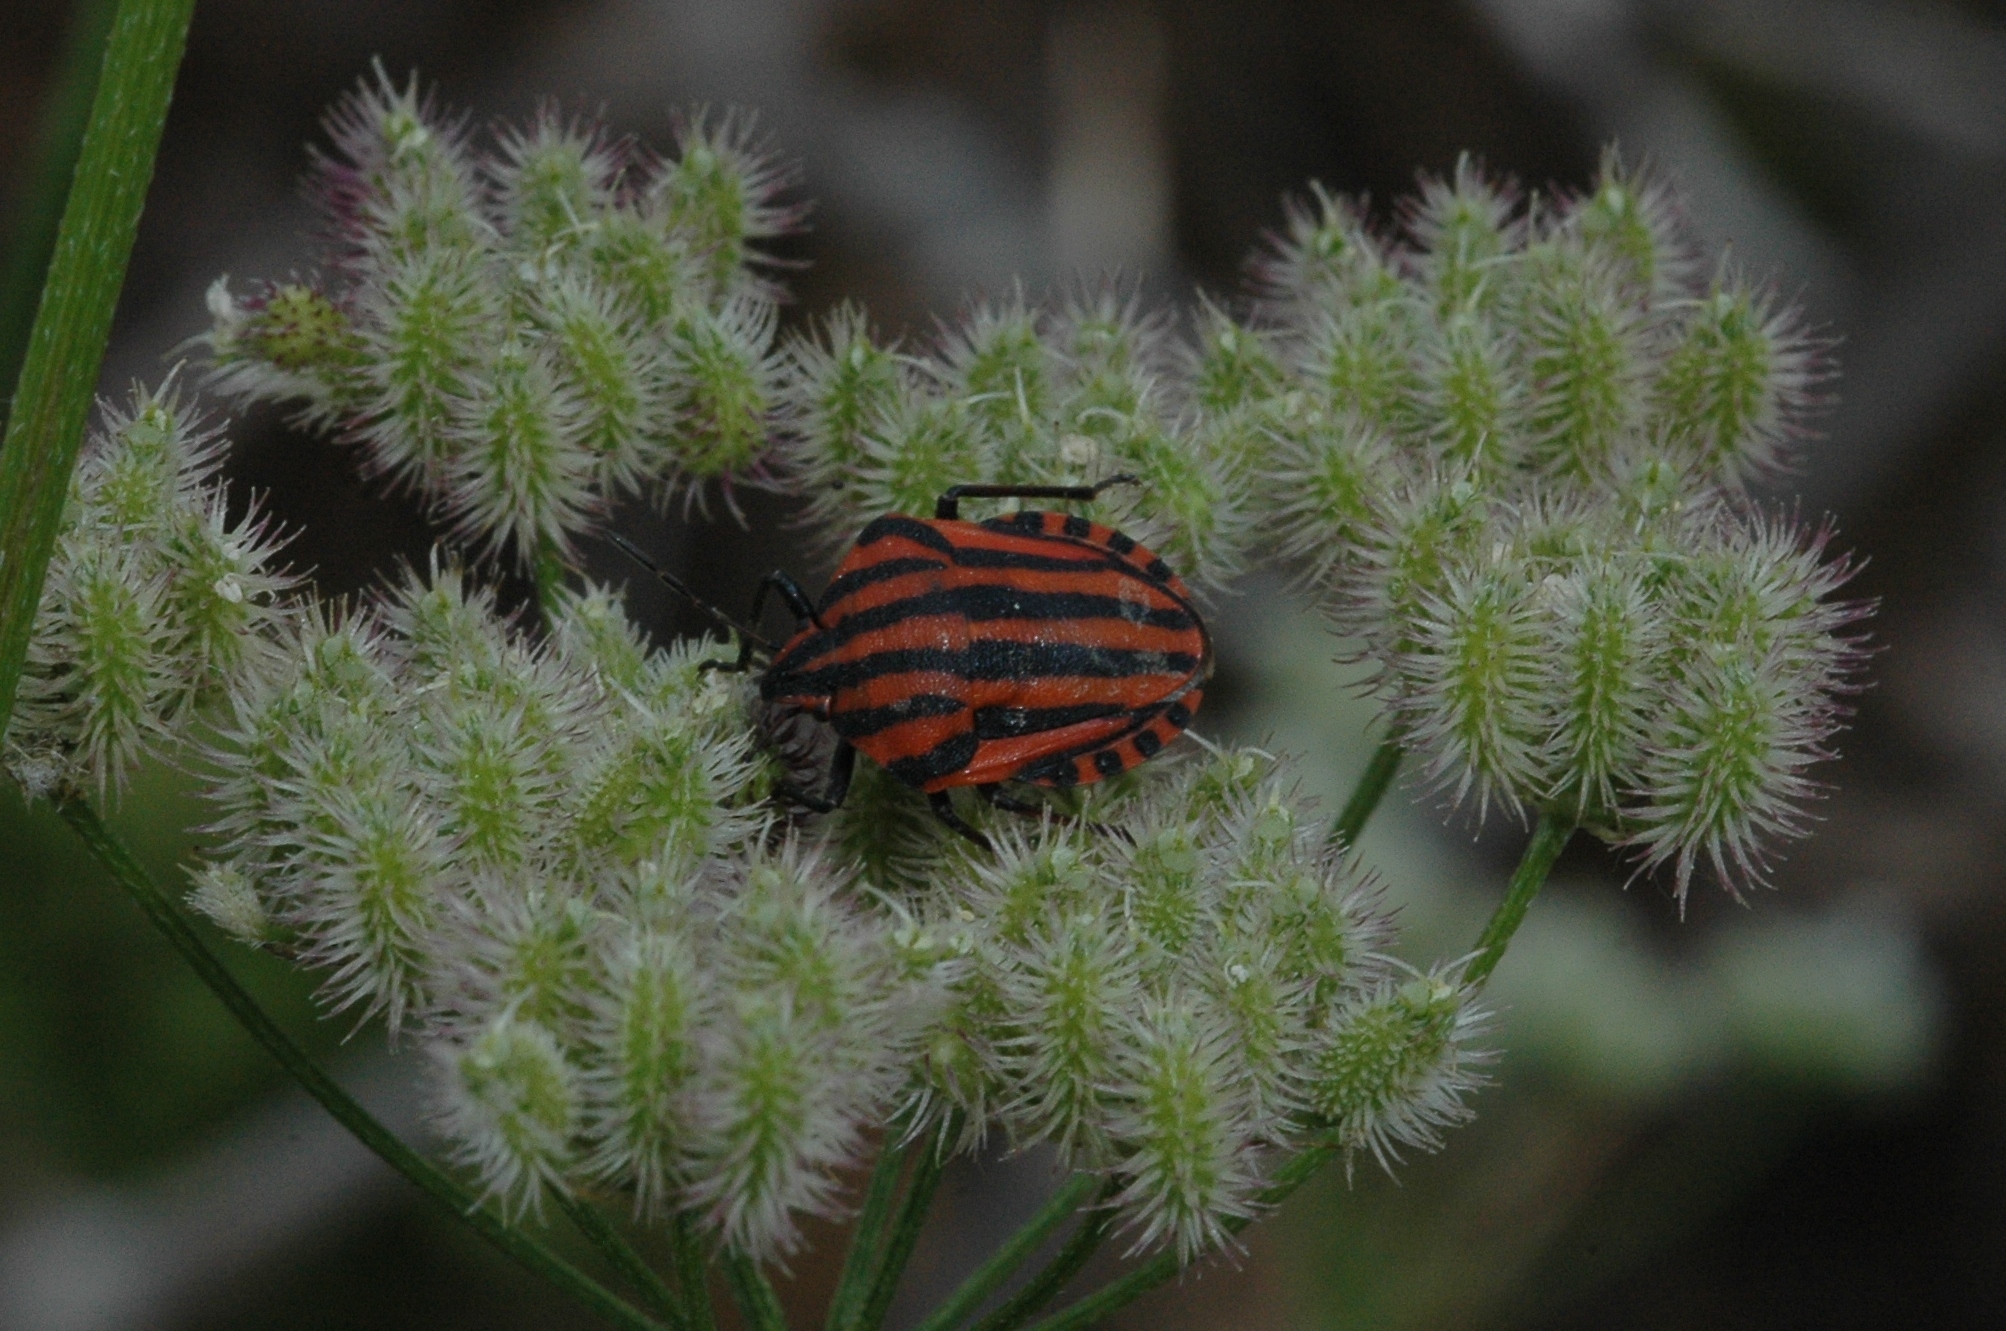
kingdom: Animalia
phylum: Arthropoda
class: Insecta
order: Hemiptera
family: Pentatomidae
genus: Graphosoma
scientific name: Graphosoma italicum
